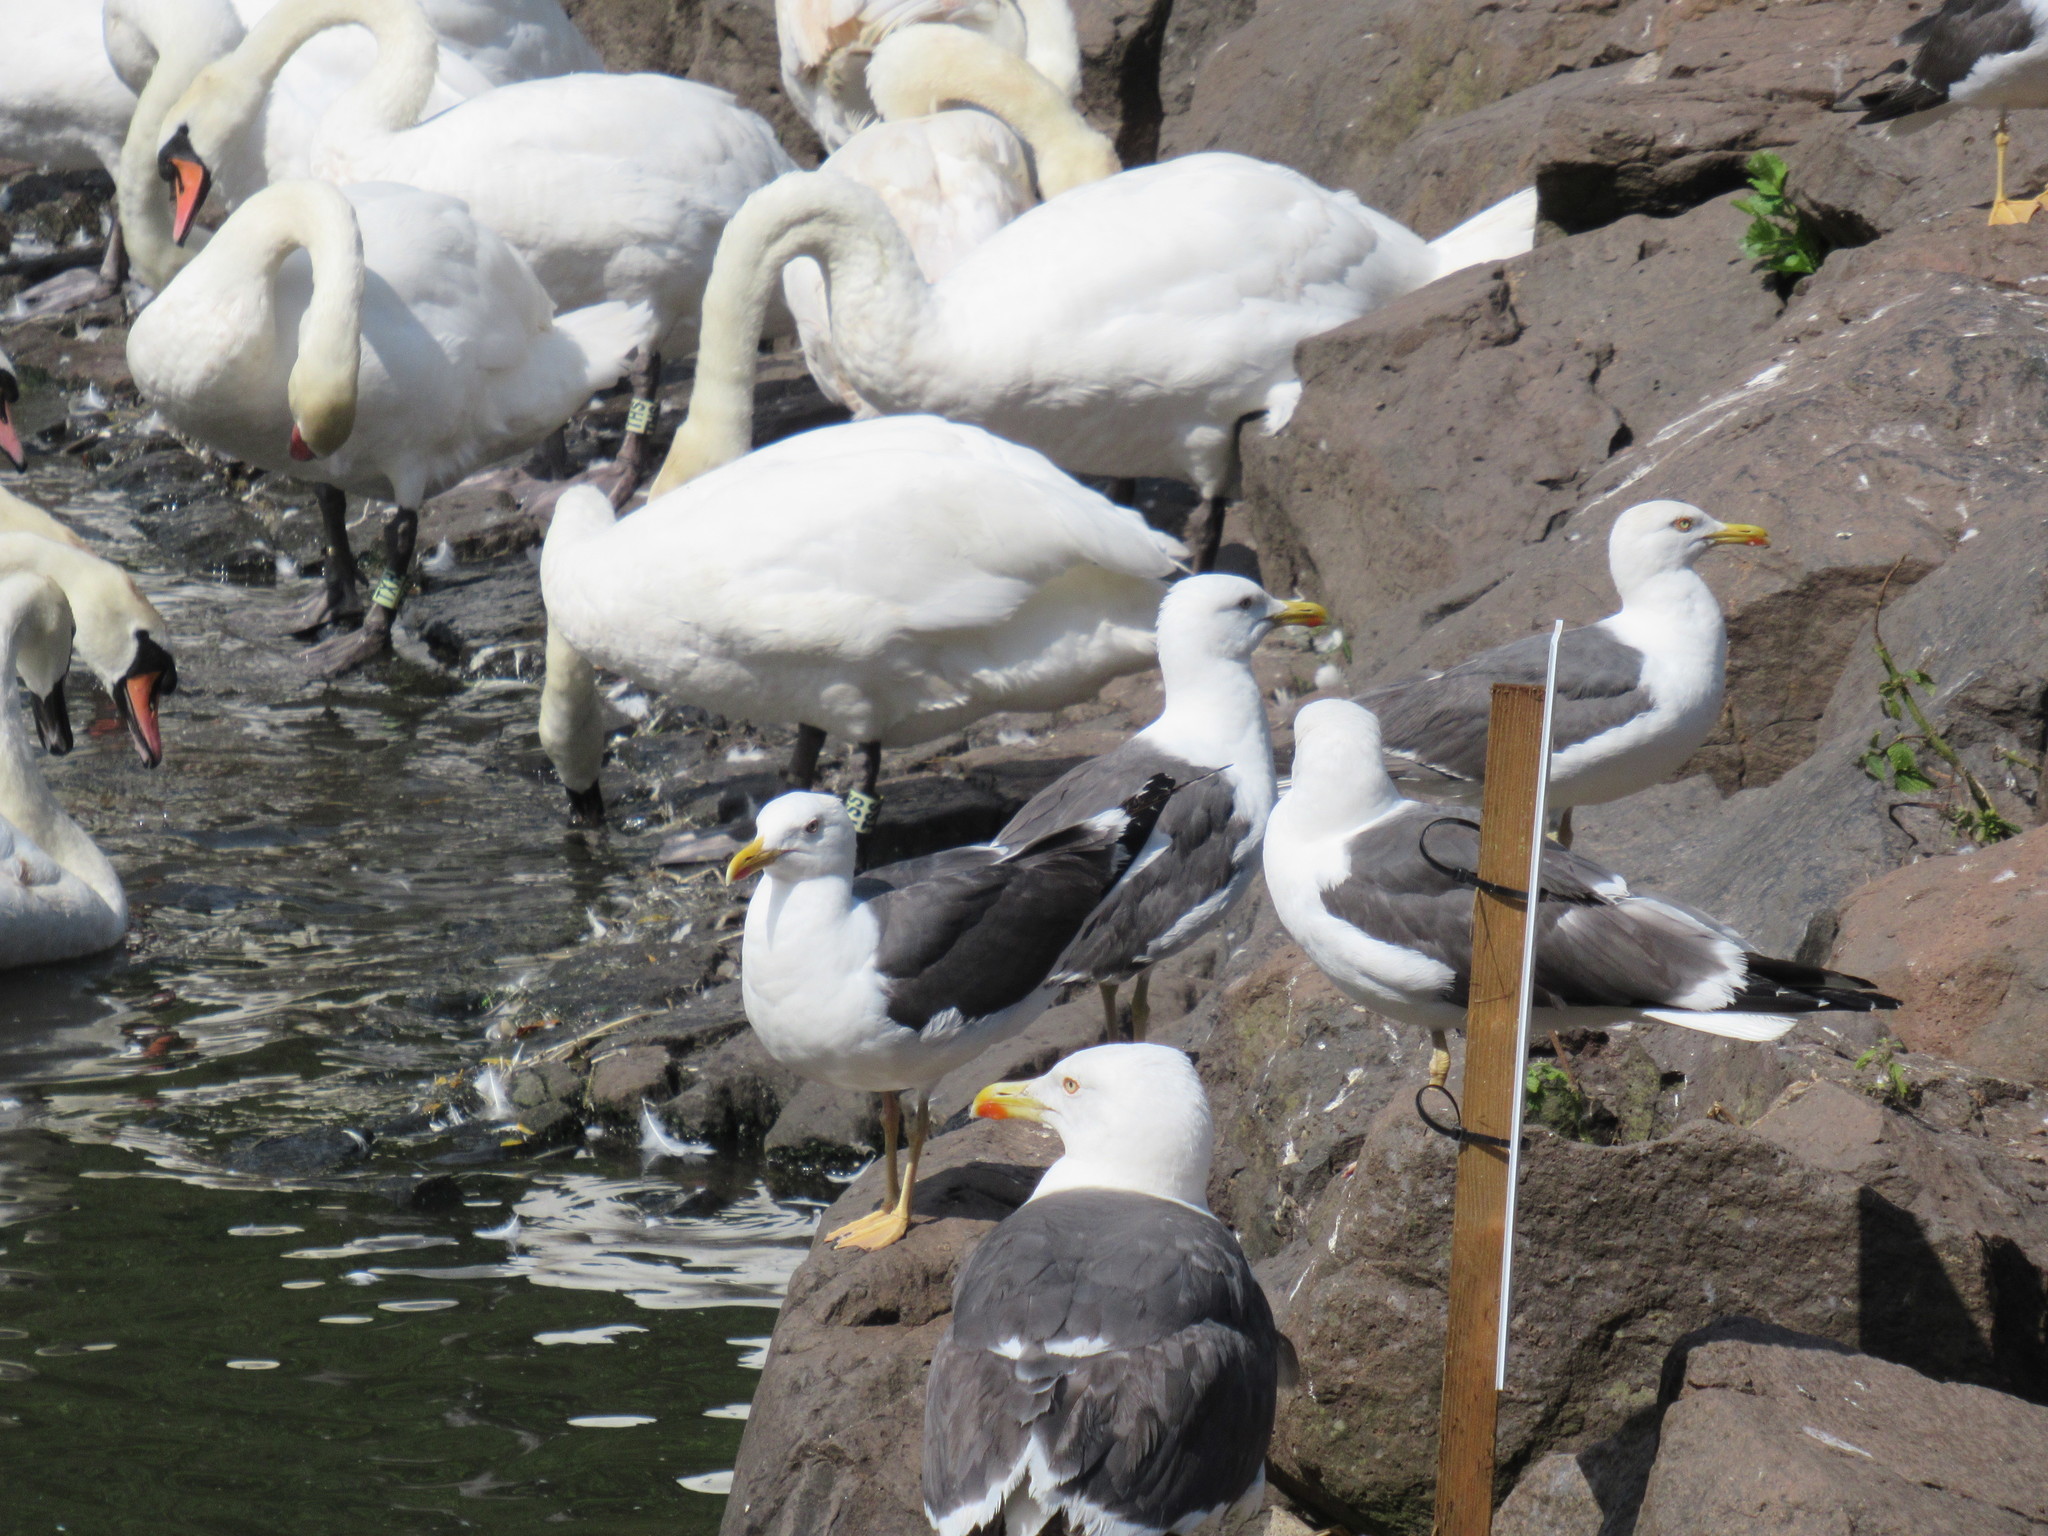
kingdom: Animalia
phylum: Chordata
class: Aves
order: Charadriiformes
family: Laridae
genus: Larus
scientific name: Larus fuscus
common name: Lesser black-backed gull
